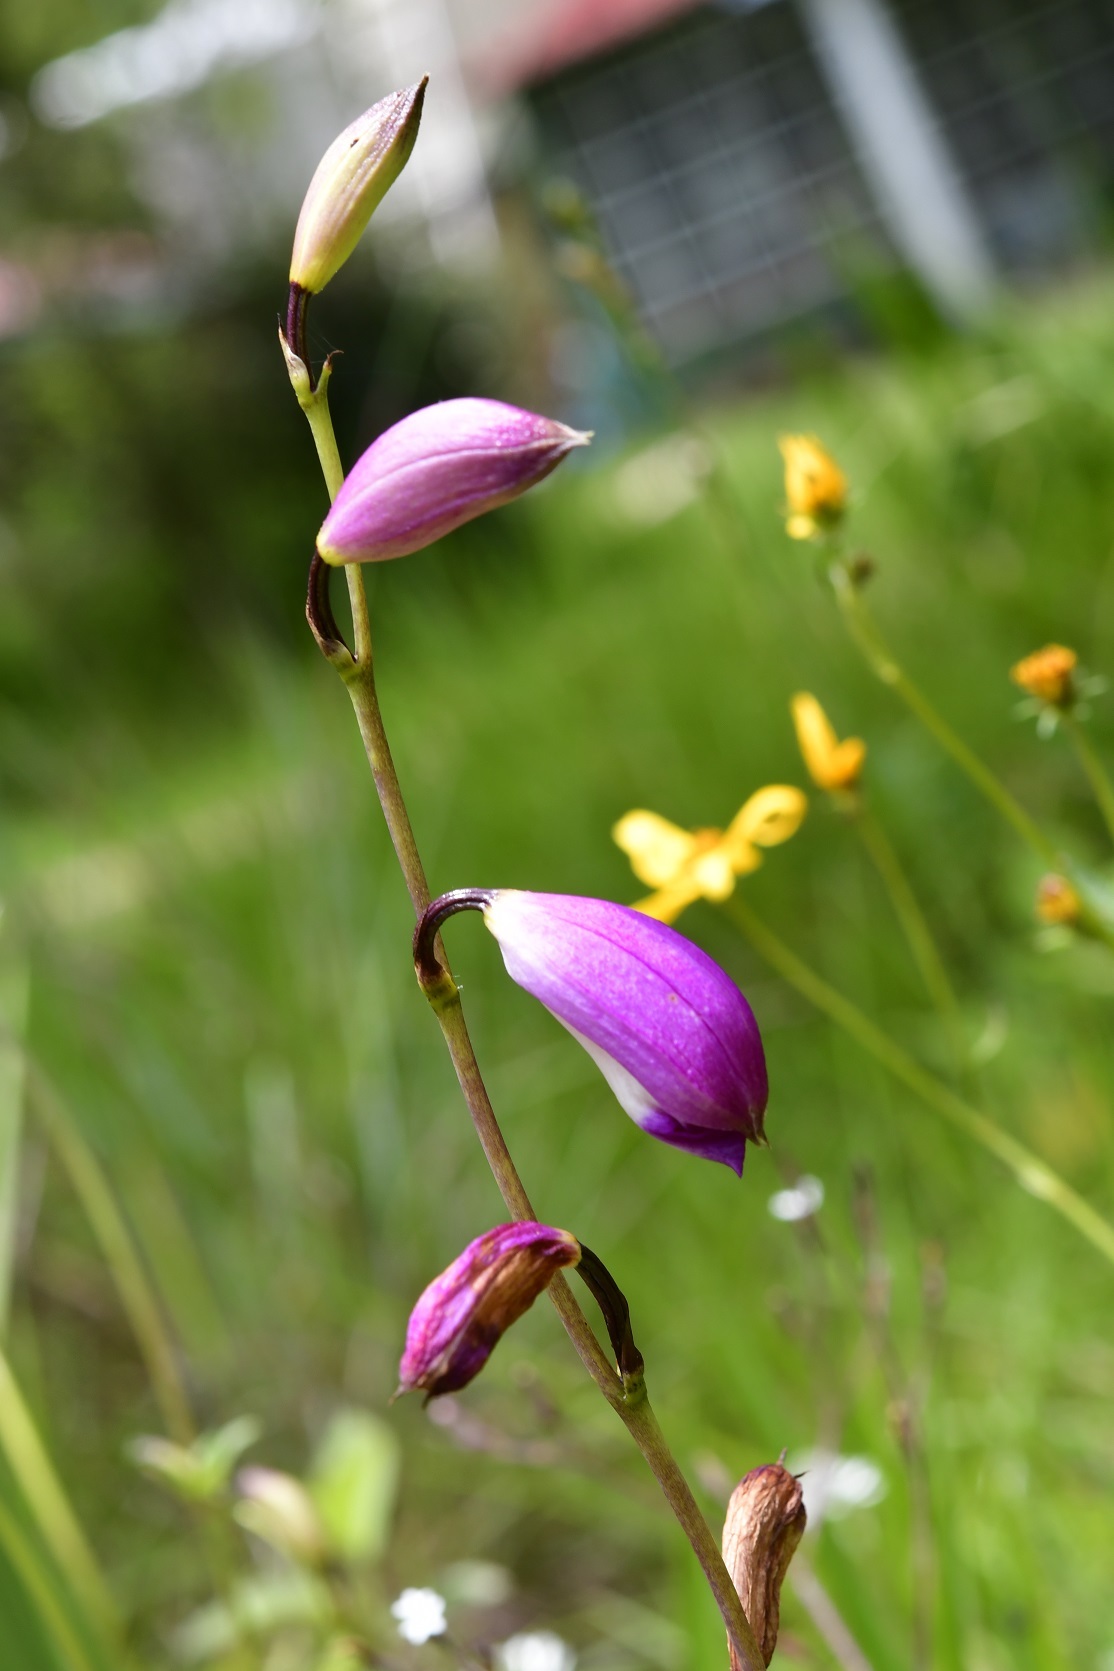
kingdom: Plantae
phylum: Tracheophyta
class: Liliopsida
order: Asparagales
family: Orchidaceae
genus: Bletia
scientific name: Bletia campanulata
